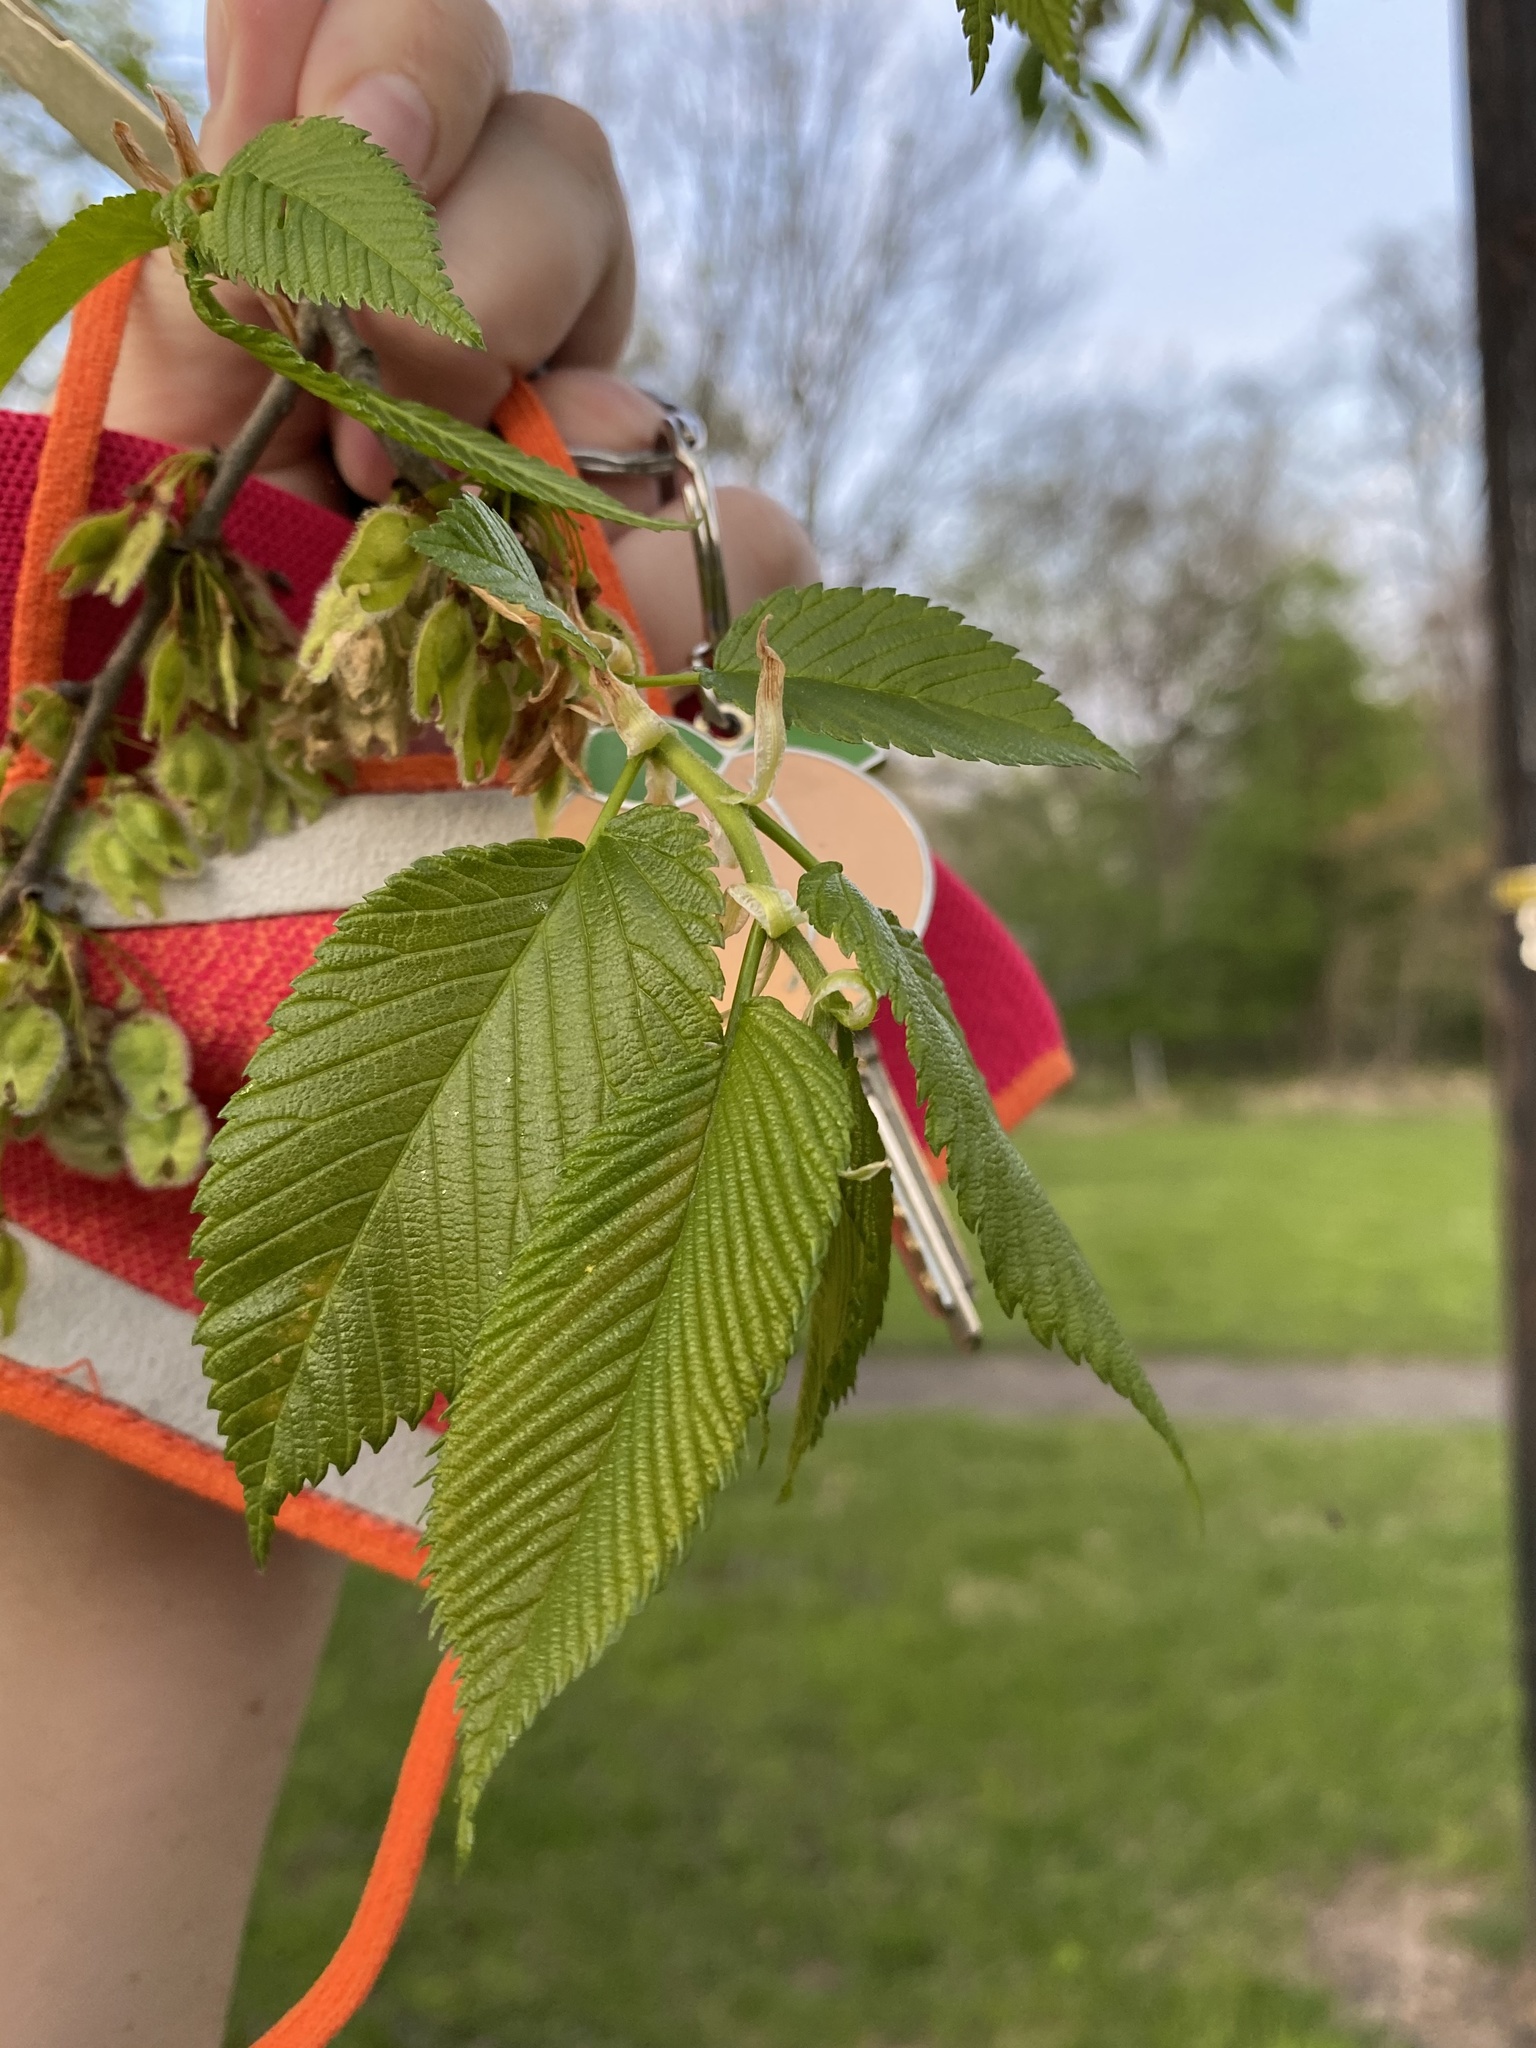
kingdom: Plantae
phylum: Tracheophyta
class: Magnoliopsida
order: Rosales
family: Ulmaceae
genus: Ulmus
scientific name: Ulmus americana
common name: American elm
